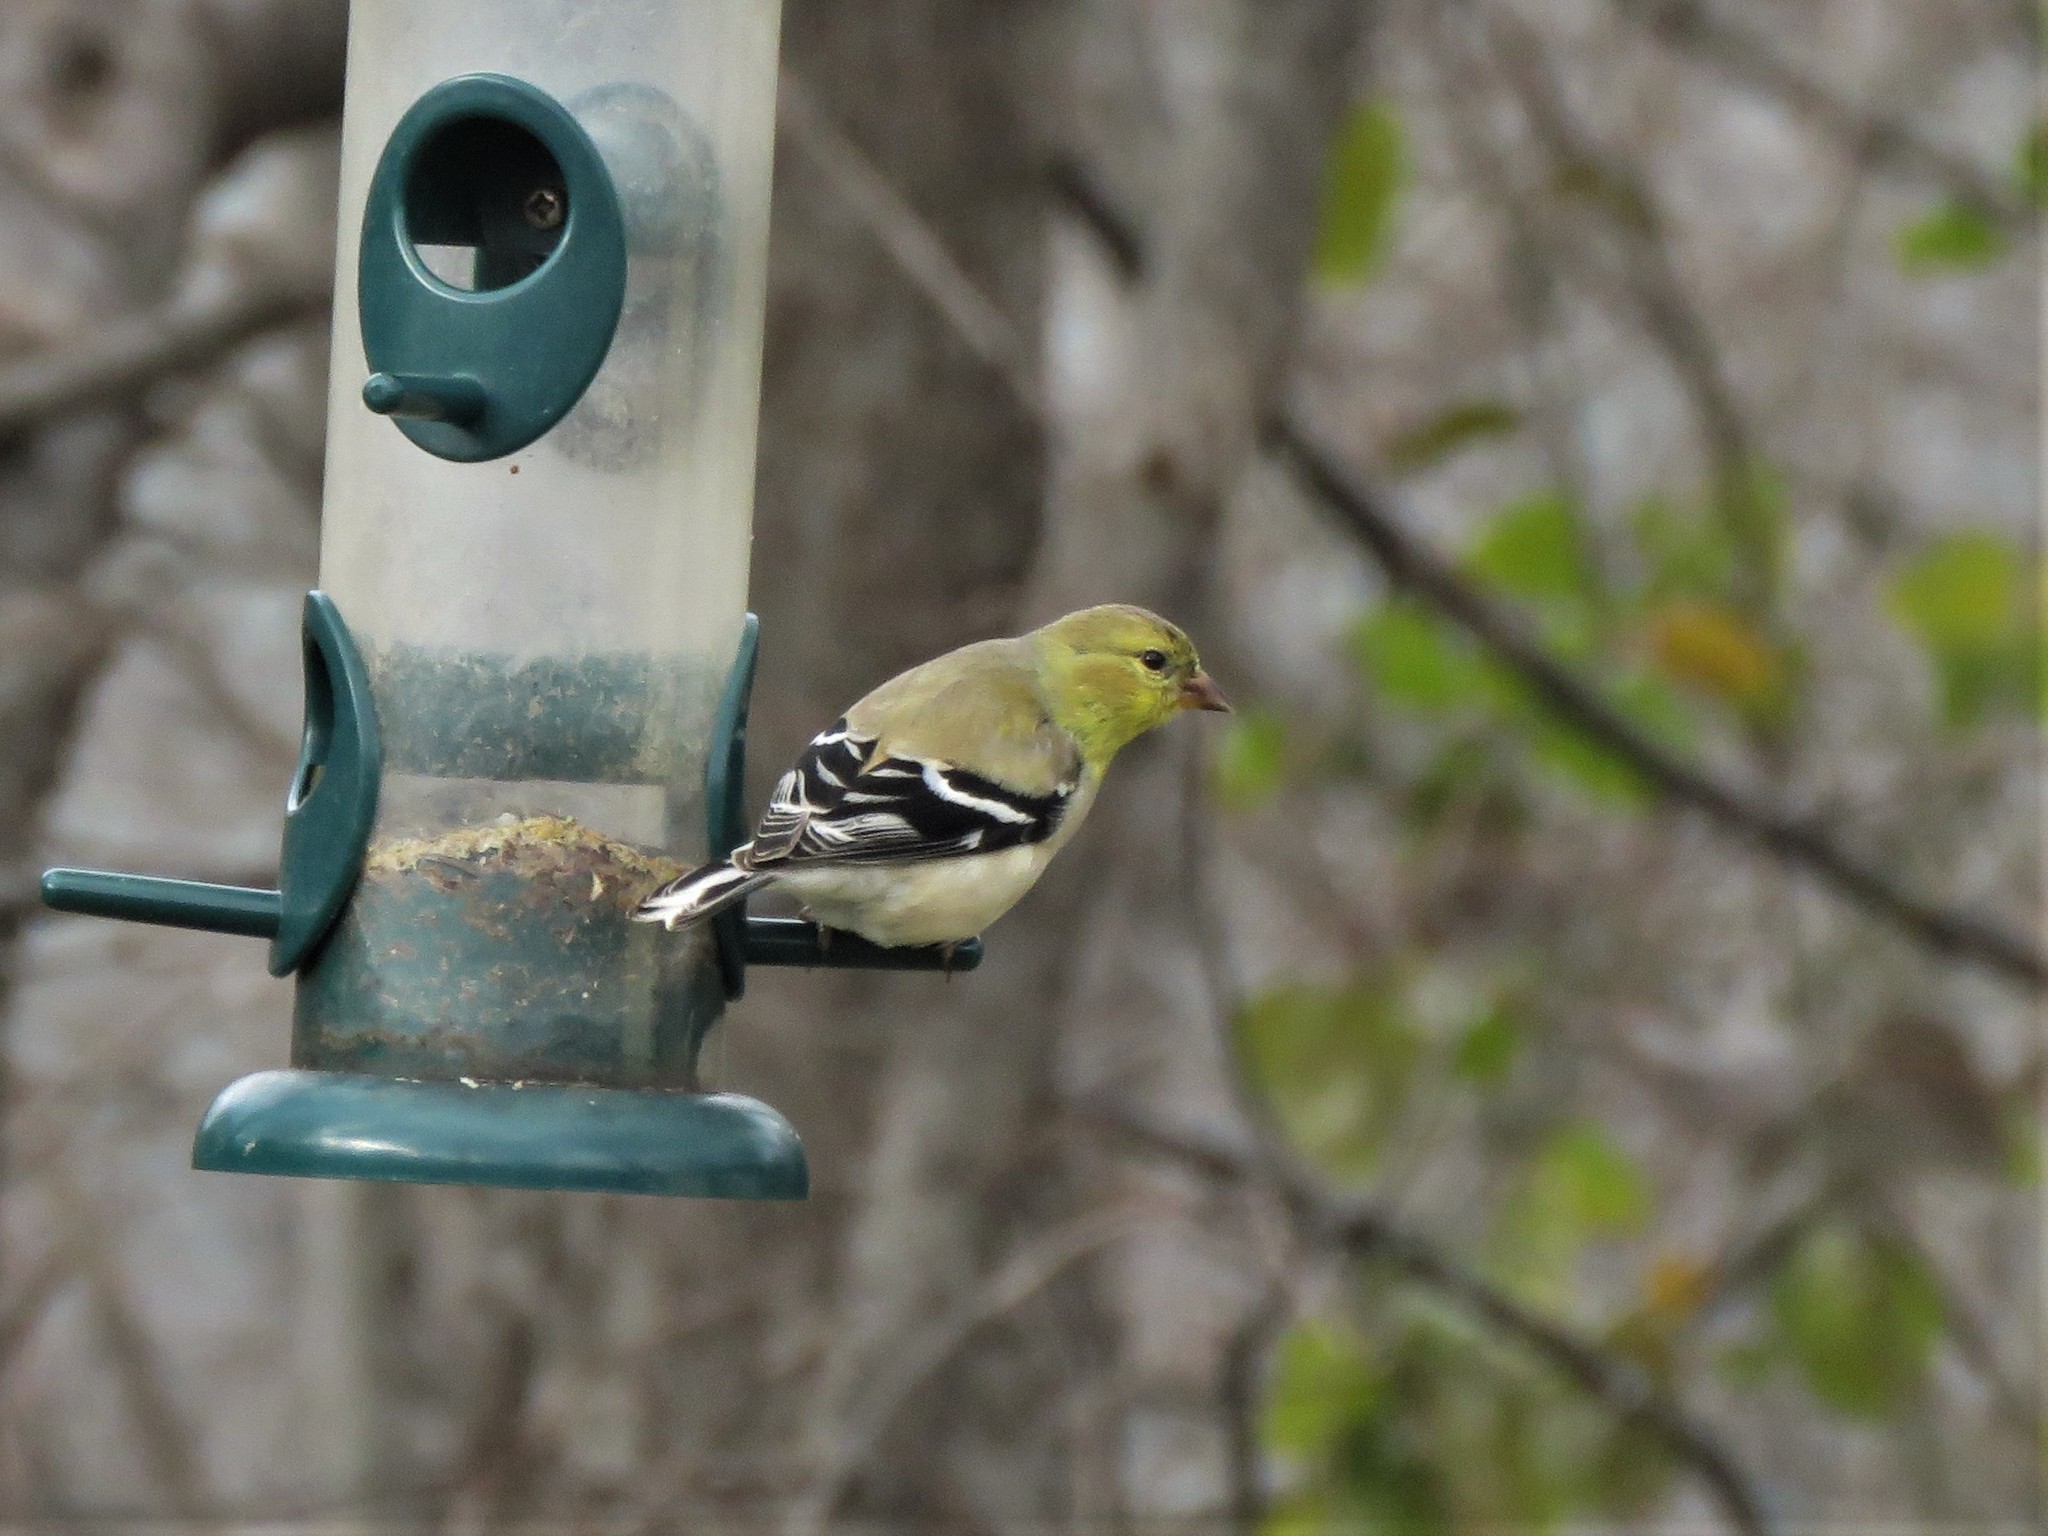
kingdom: Animalia
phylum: Chordata
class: Aves
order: Passeriformes
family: Fringillidae
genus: Spinus
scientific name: Spinus tristis
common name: American goldfinch
